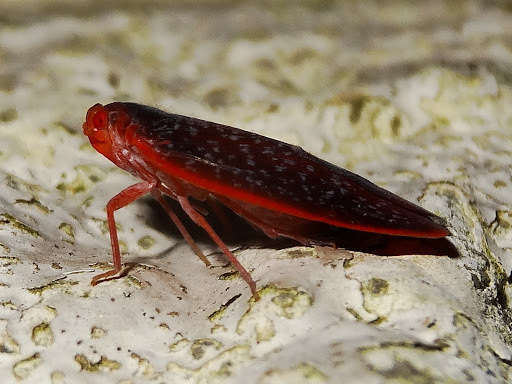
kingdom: Animalia
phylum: Arthropoda
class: Insecta
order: Hemiptera
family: Achilidae
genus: Achilus
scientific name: Achilus flammeus
